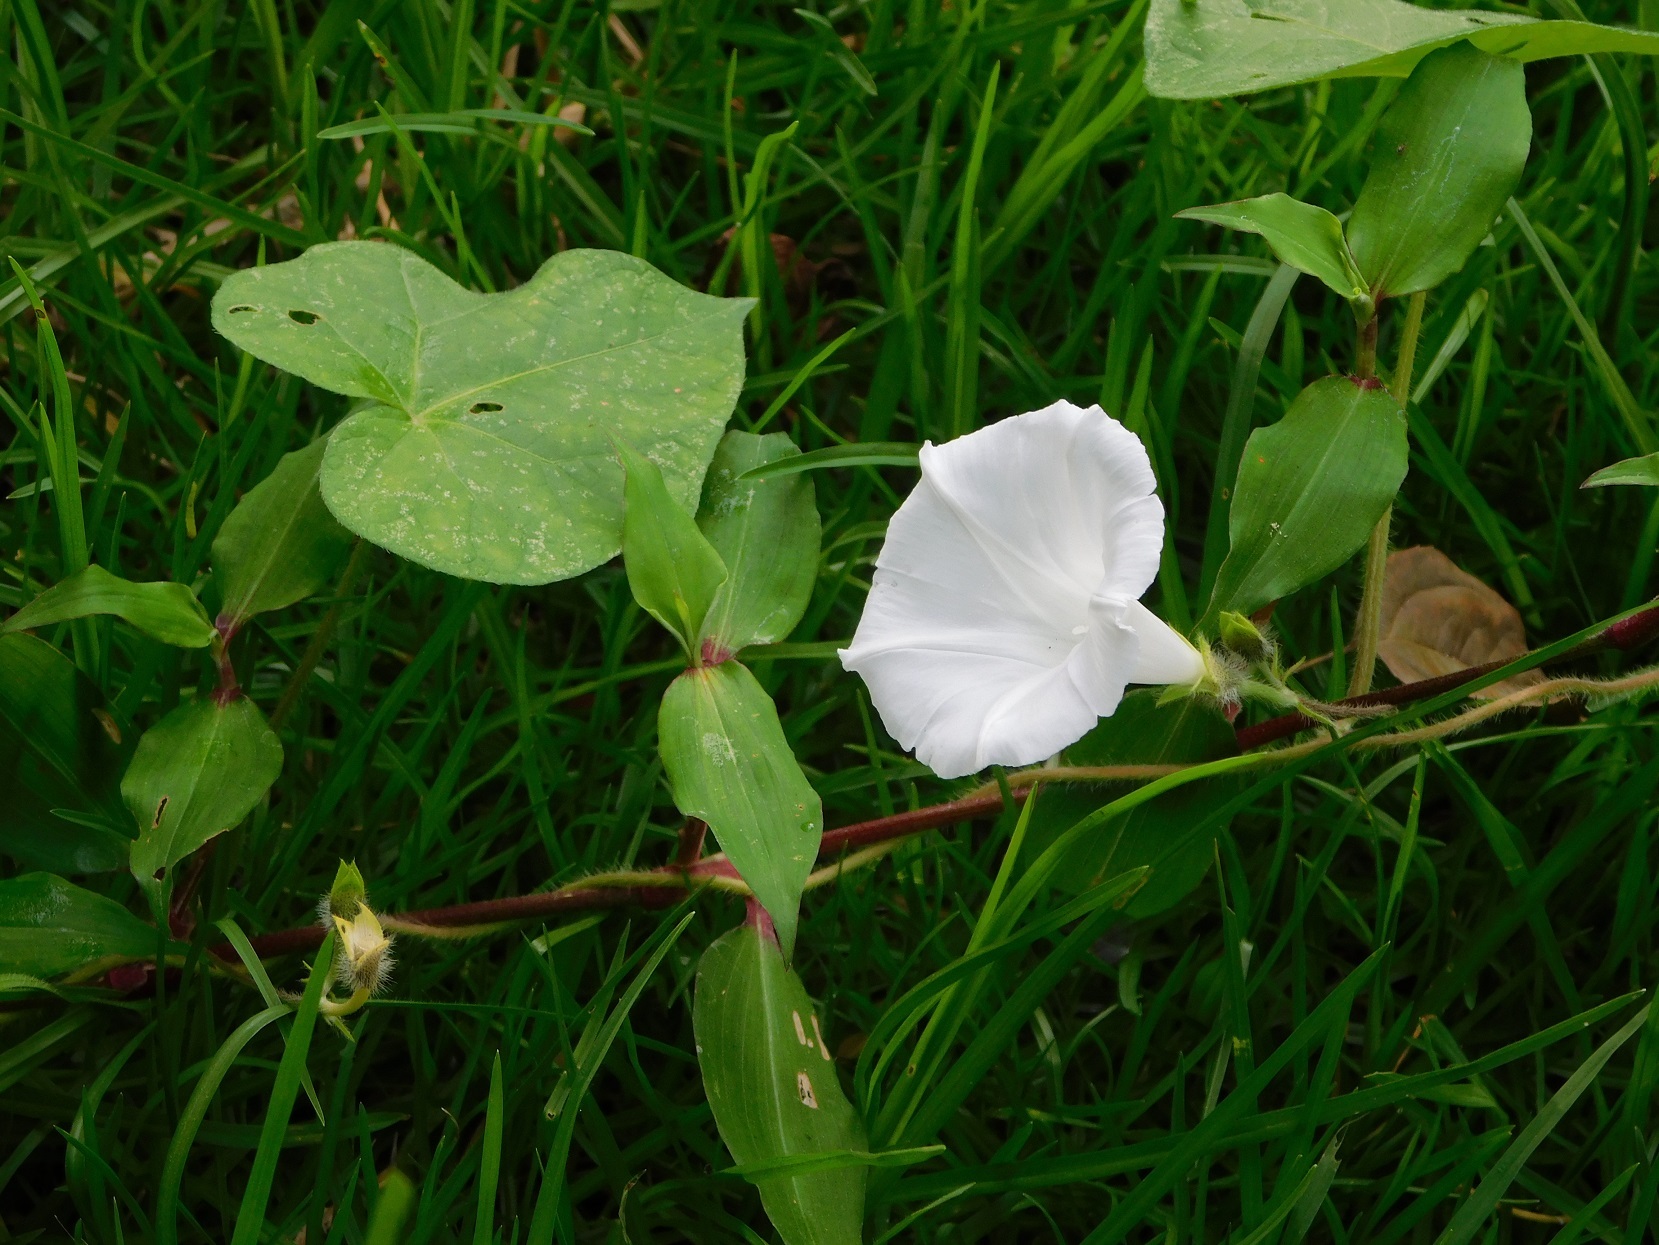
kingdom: Plantae
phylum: Tracheophyta
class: Magnoliopsida
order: Solanales
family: Convolvulaceae
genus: Ipomoea
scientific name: Ipomoea purpurea
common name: Common morning-glory
